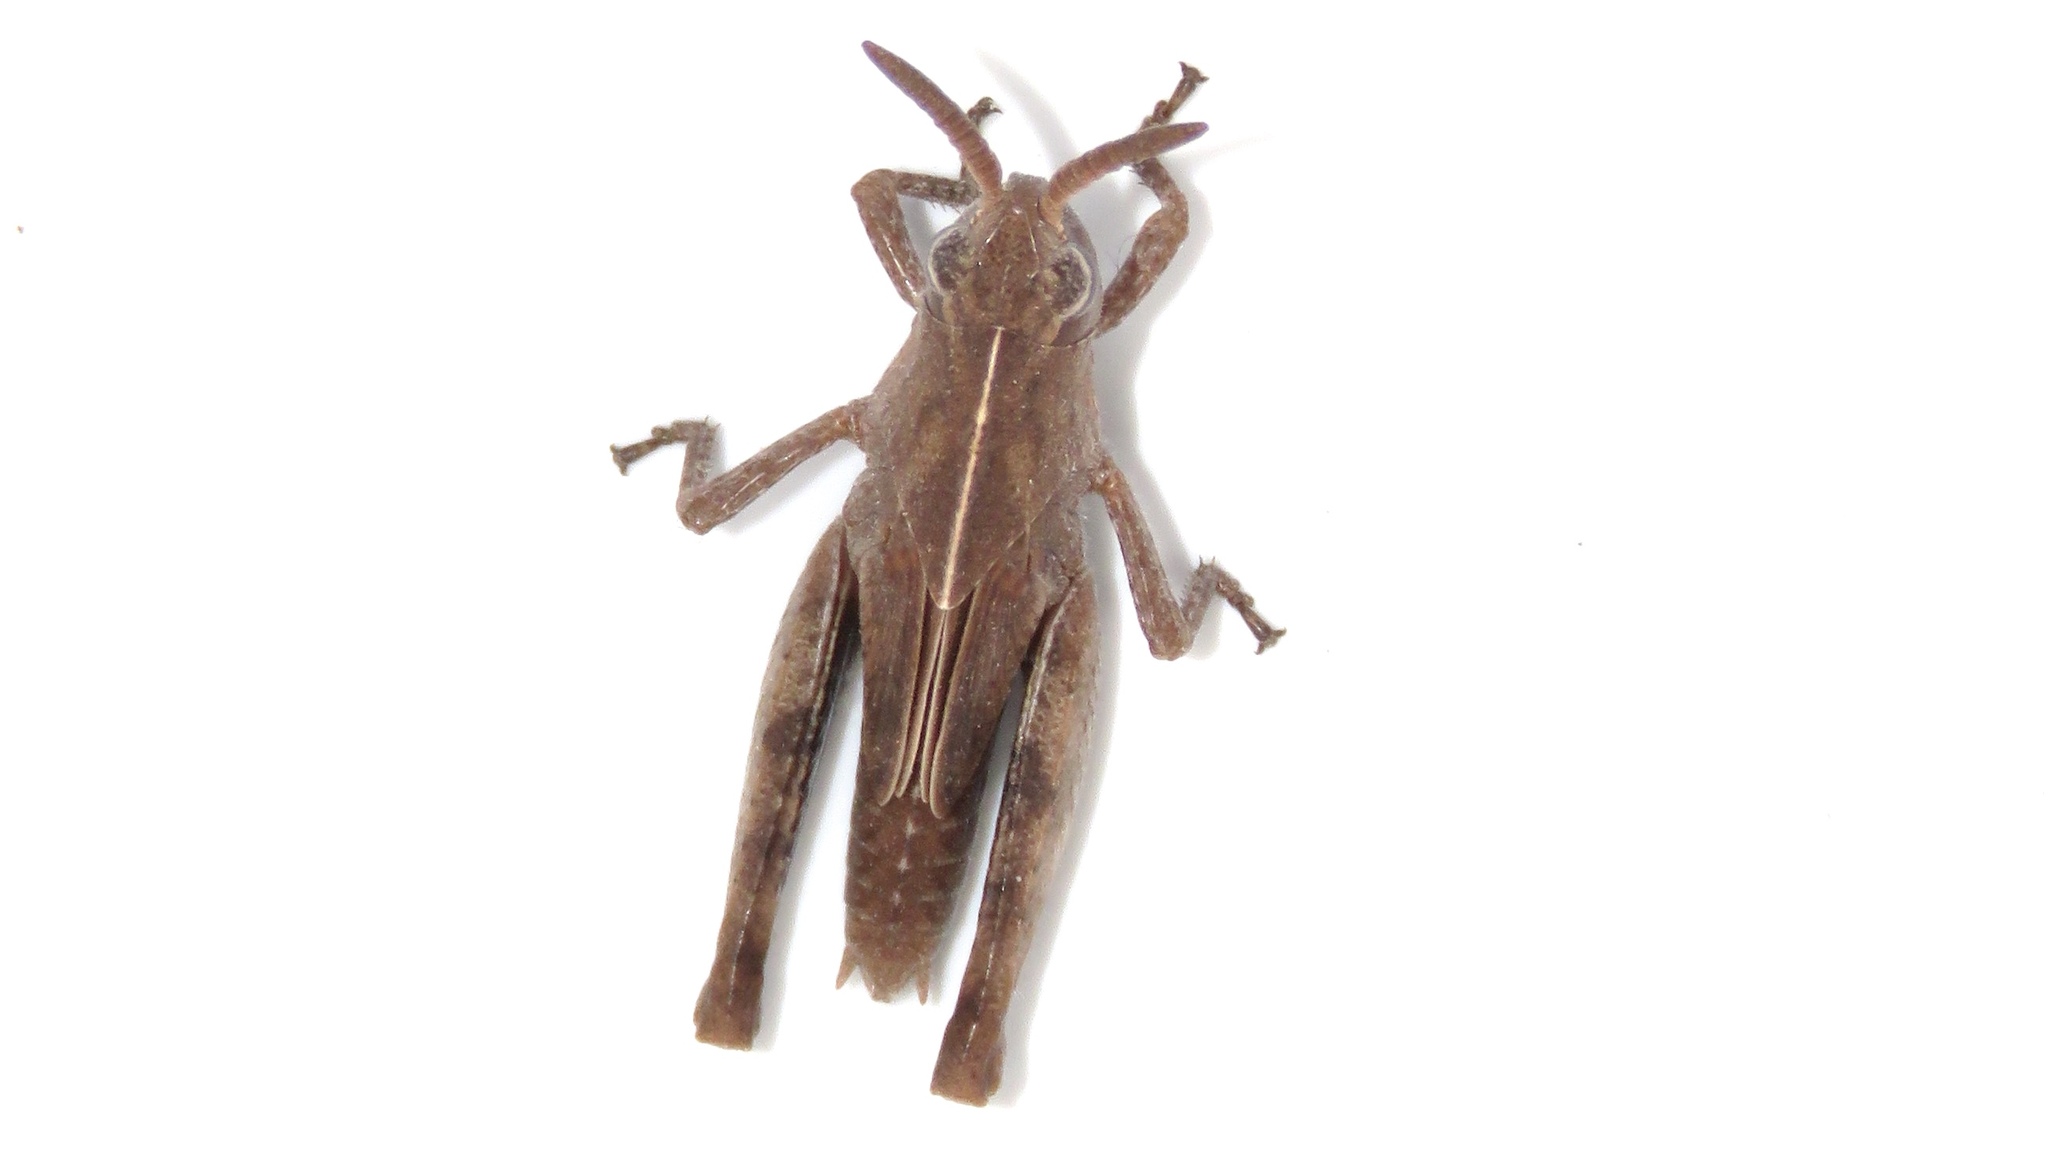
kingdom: Animalia
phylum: Arthropoda
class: Insecta
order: Orthoptera
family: Acrididae
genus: Chortophaga
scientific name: Chortophaga viridifasciata
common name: Green-striped grasshopper
